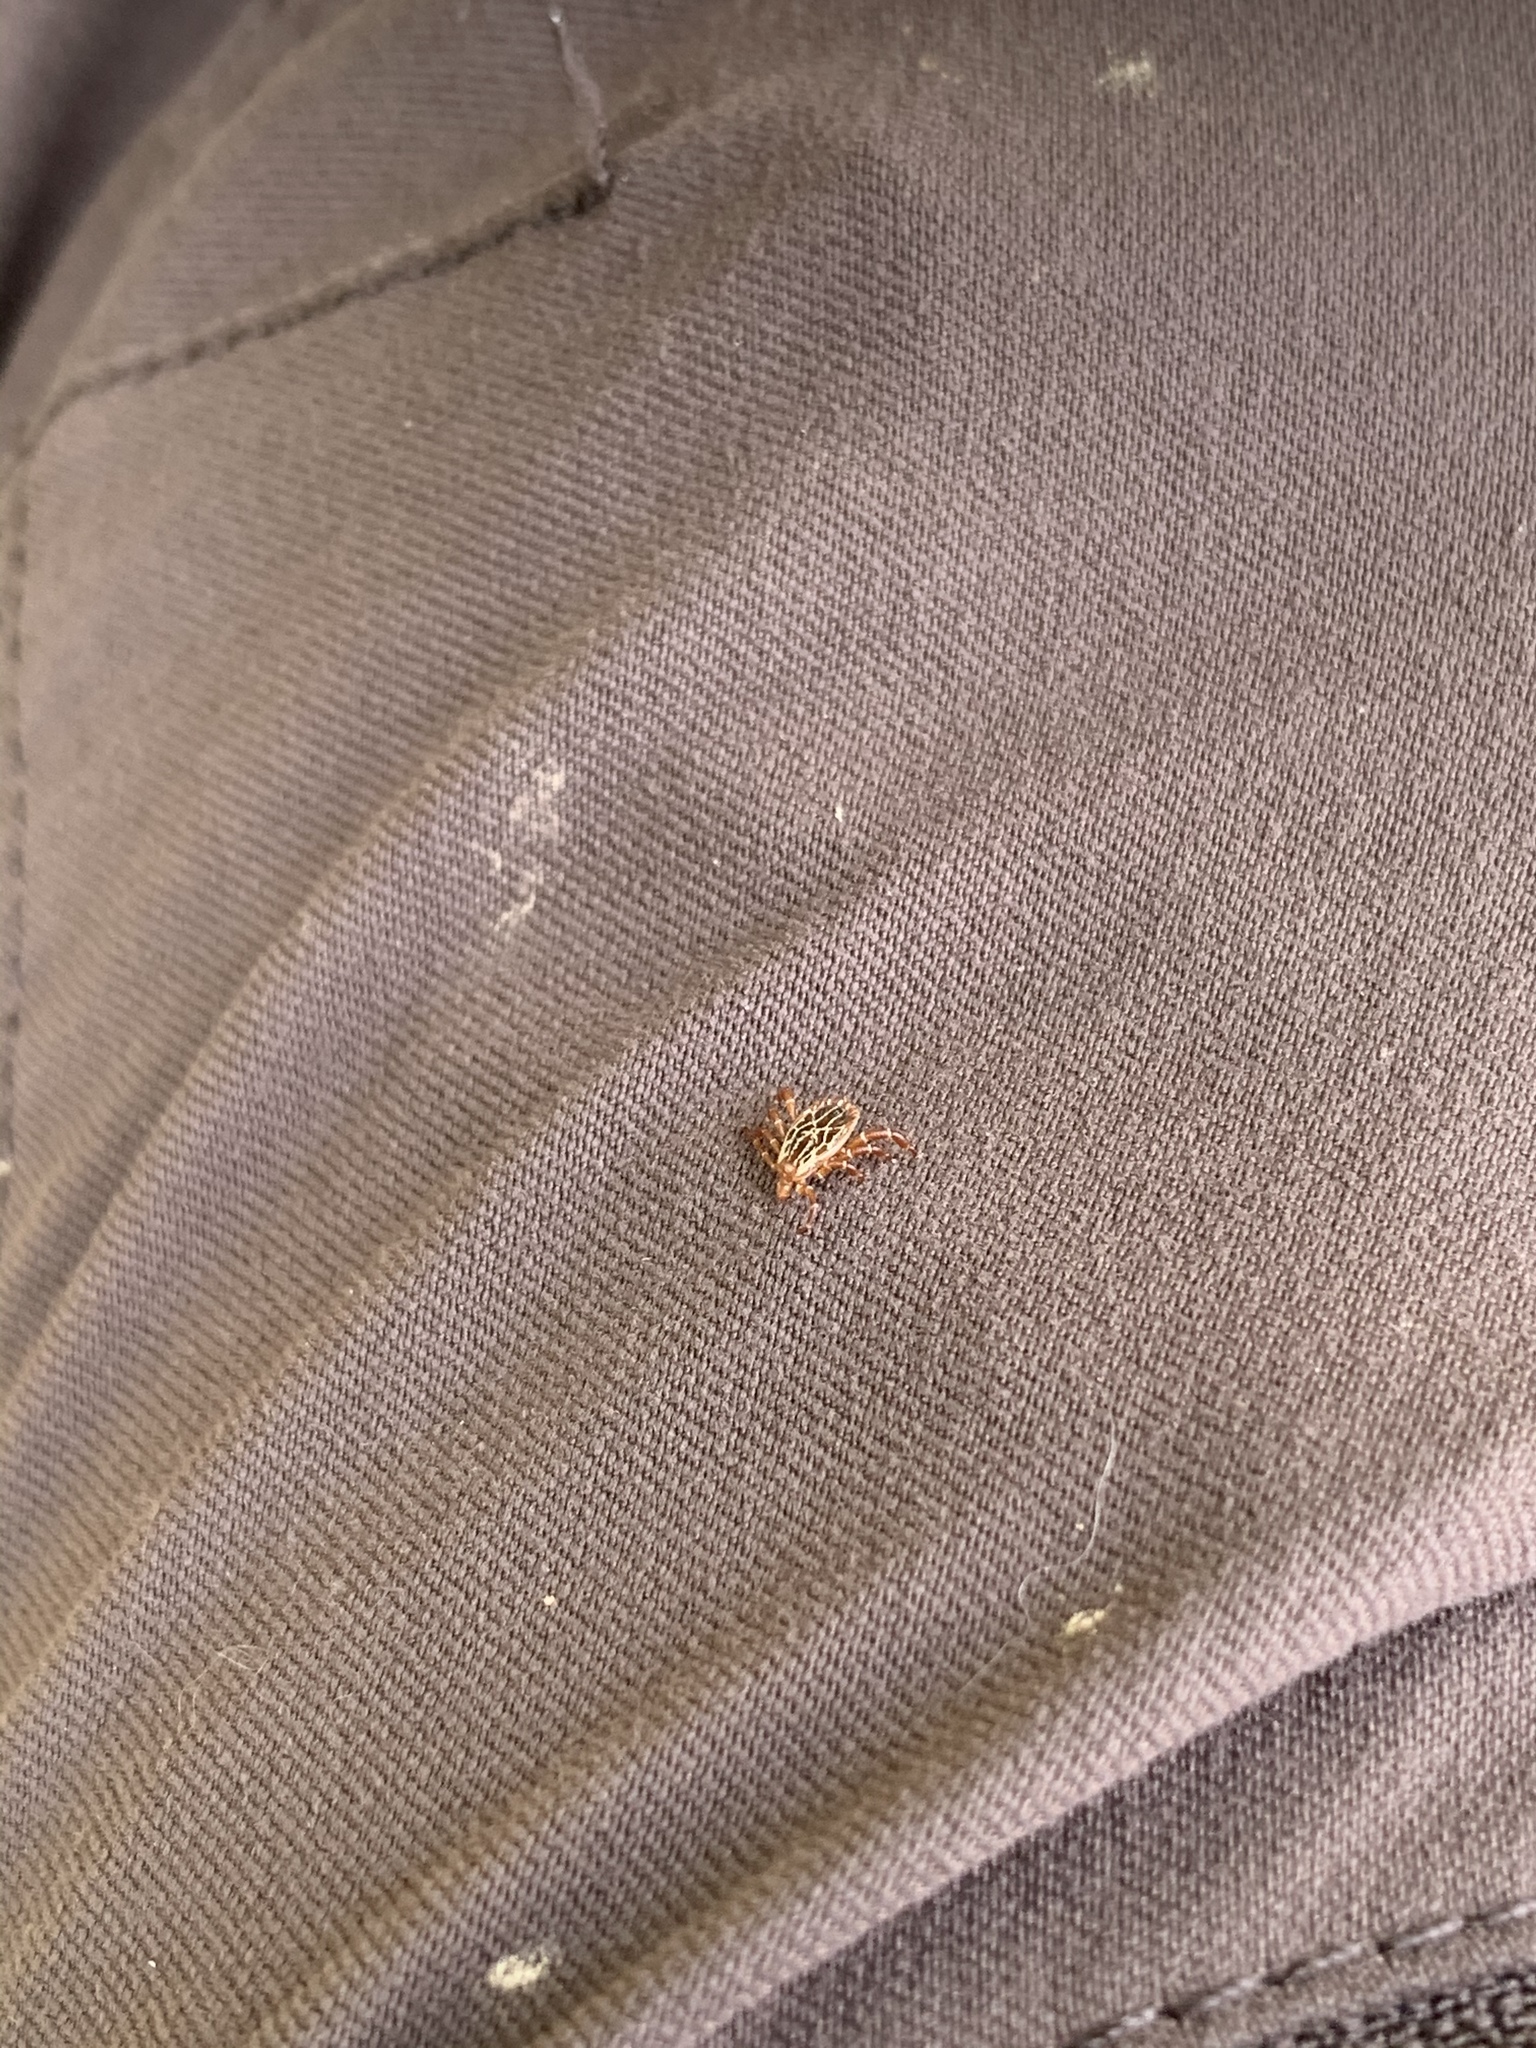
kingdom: Animalia
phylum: Arthropoda
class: Arachnida
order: Ixodida
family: Ixodidae
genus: Amblyomma
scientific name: Amblyomma maculatum
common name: Gulf coast tick
